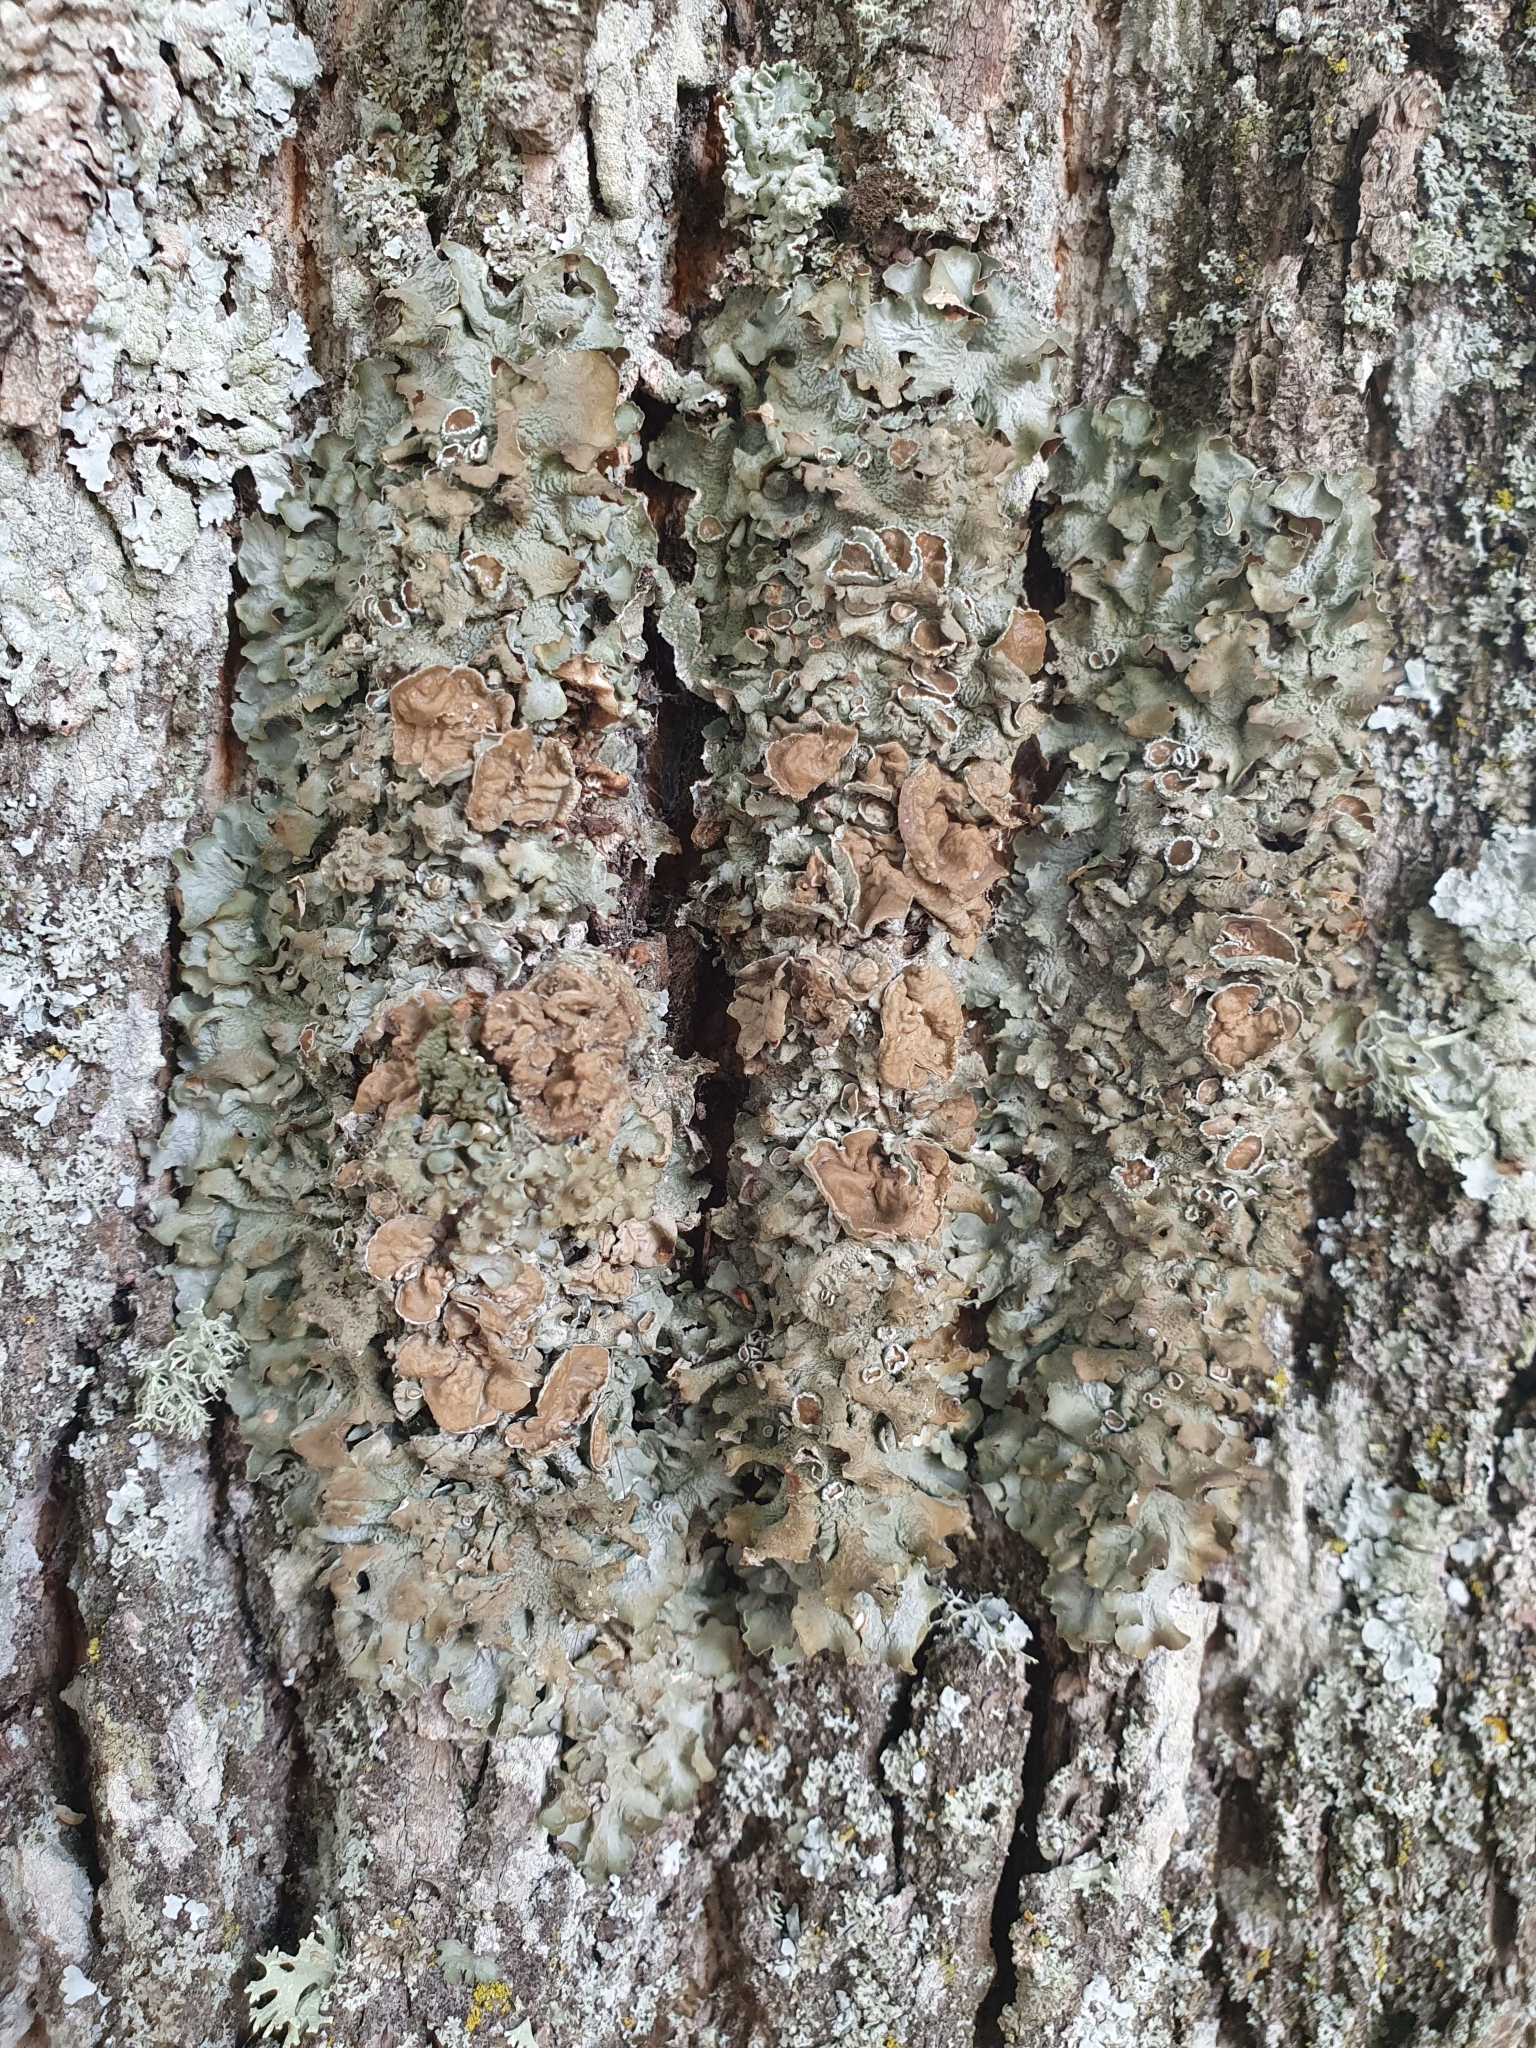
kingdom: Fungi
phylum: Ascomycota
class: Lecanoromycetes
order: Lecanorales
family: Parmeliaceae
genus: Pleurosticta
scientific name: Pleurosticta acetabulum
